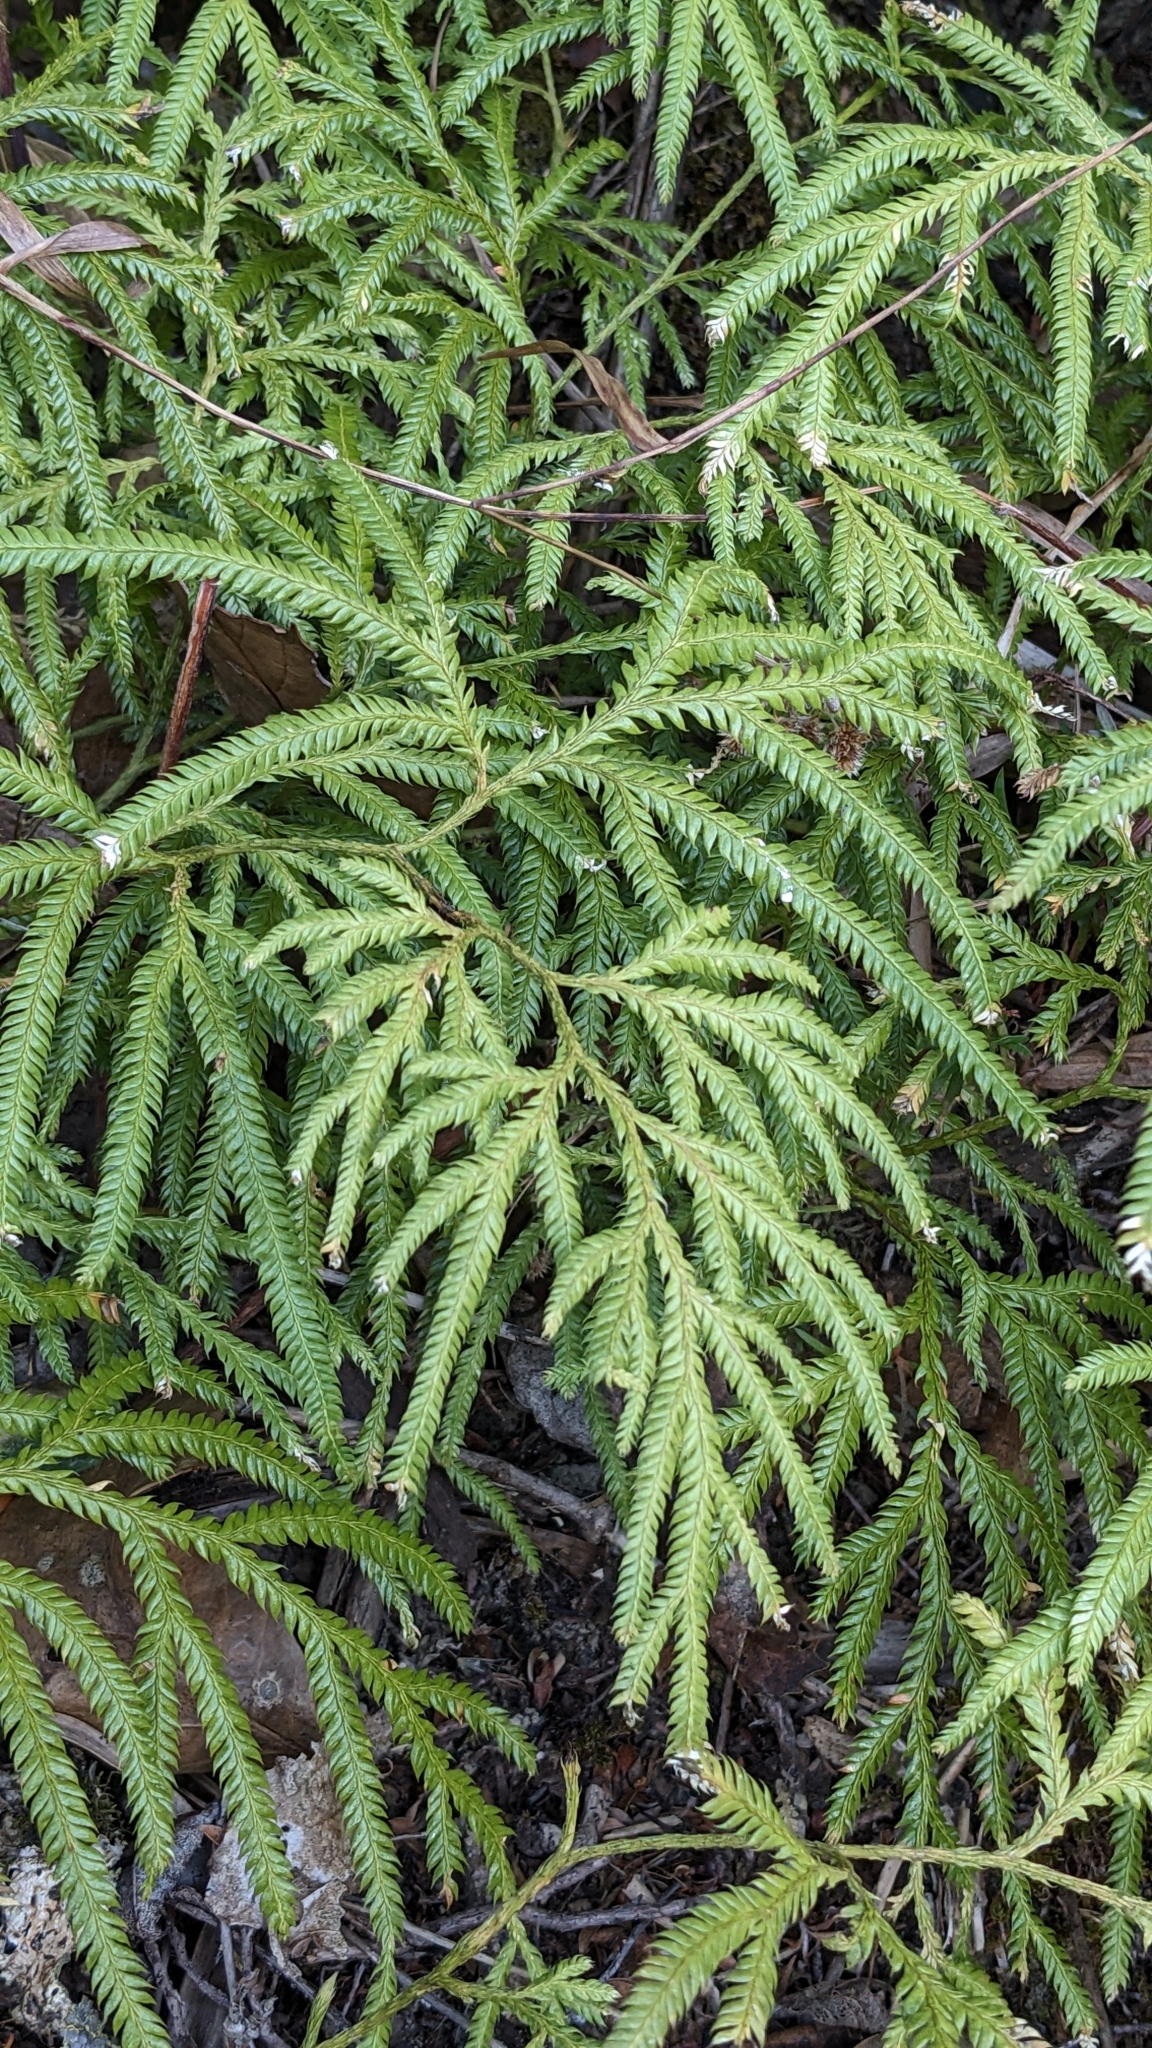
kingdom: Plantae
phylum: Tracheophyta
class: Lycopodiopsida
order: Lycopodiales
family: Lycopodiaceae
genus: Lycopodium
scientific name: Lycopodium volubile
